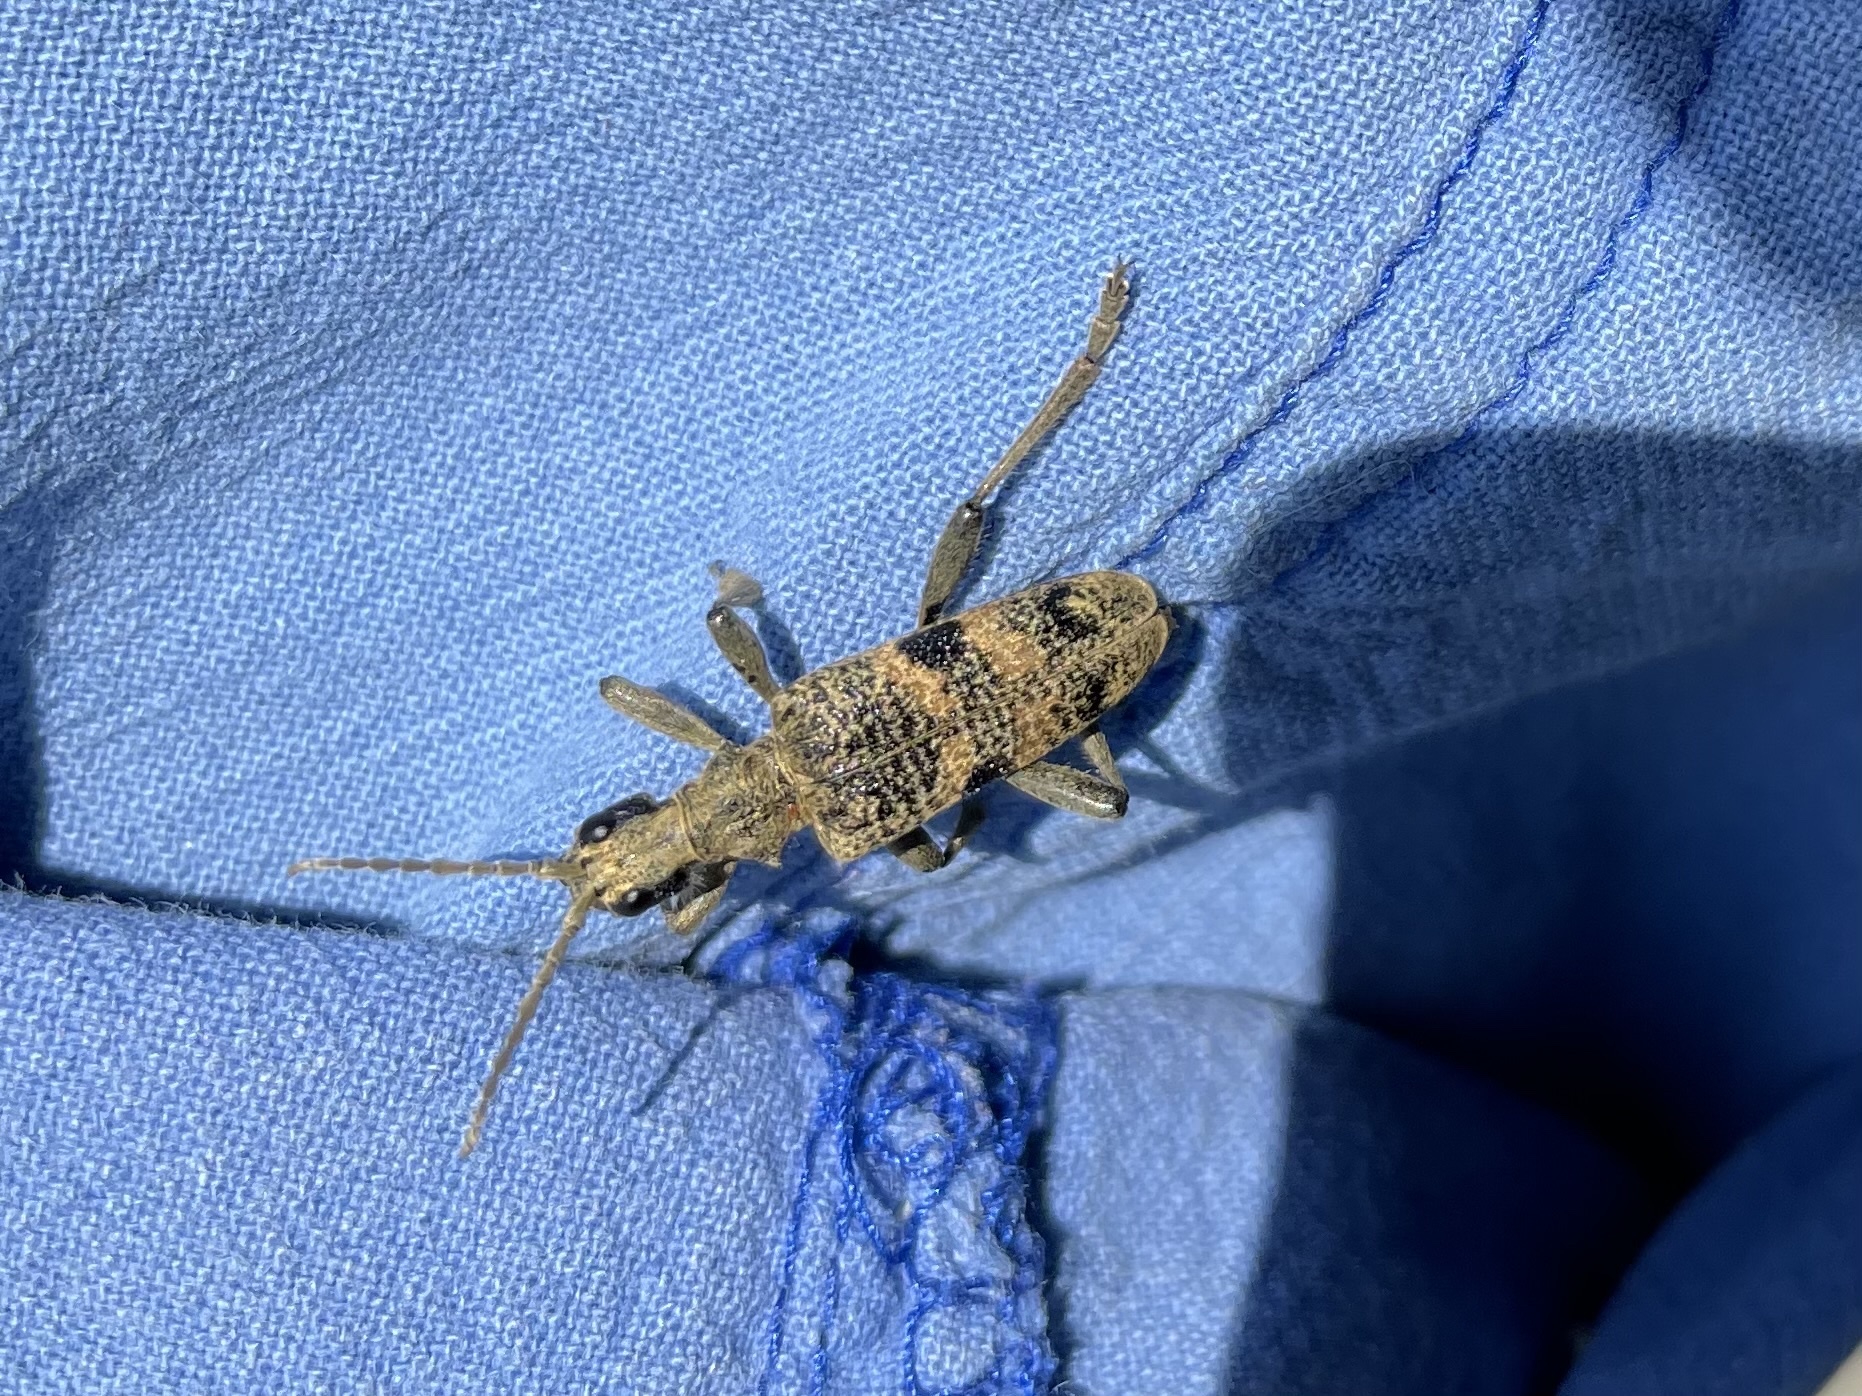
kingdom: Animalia
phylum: Arthropoda
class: Insecta
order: Coleoptera
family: Cerambycidae
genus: Rhagium
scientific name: Rhagium mordax
